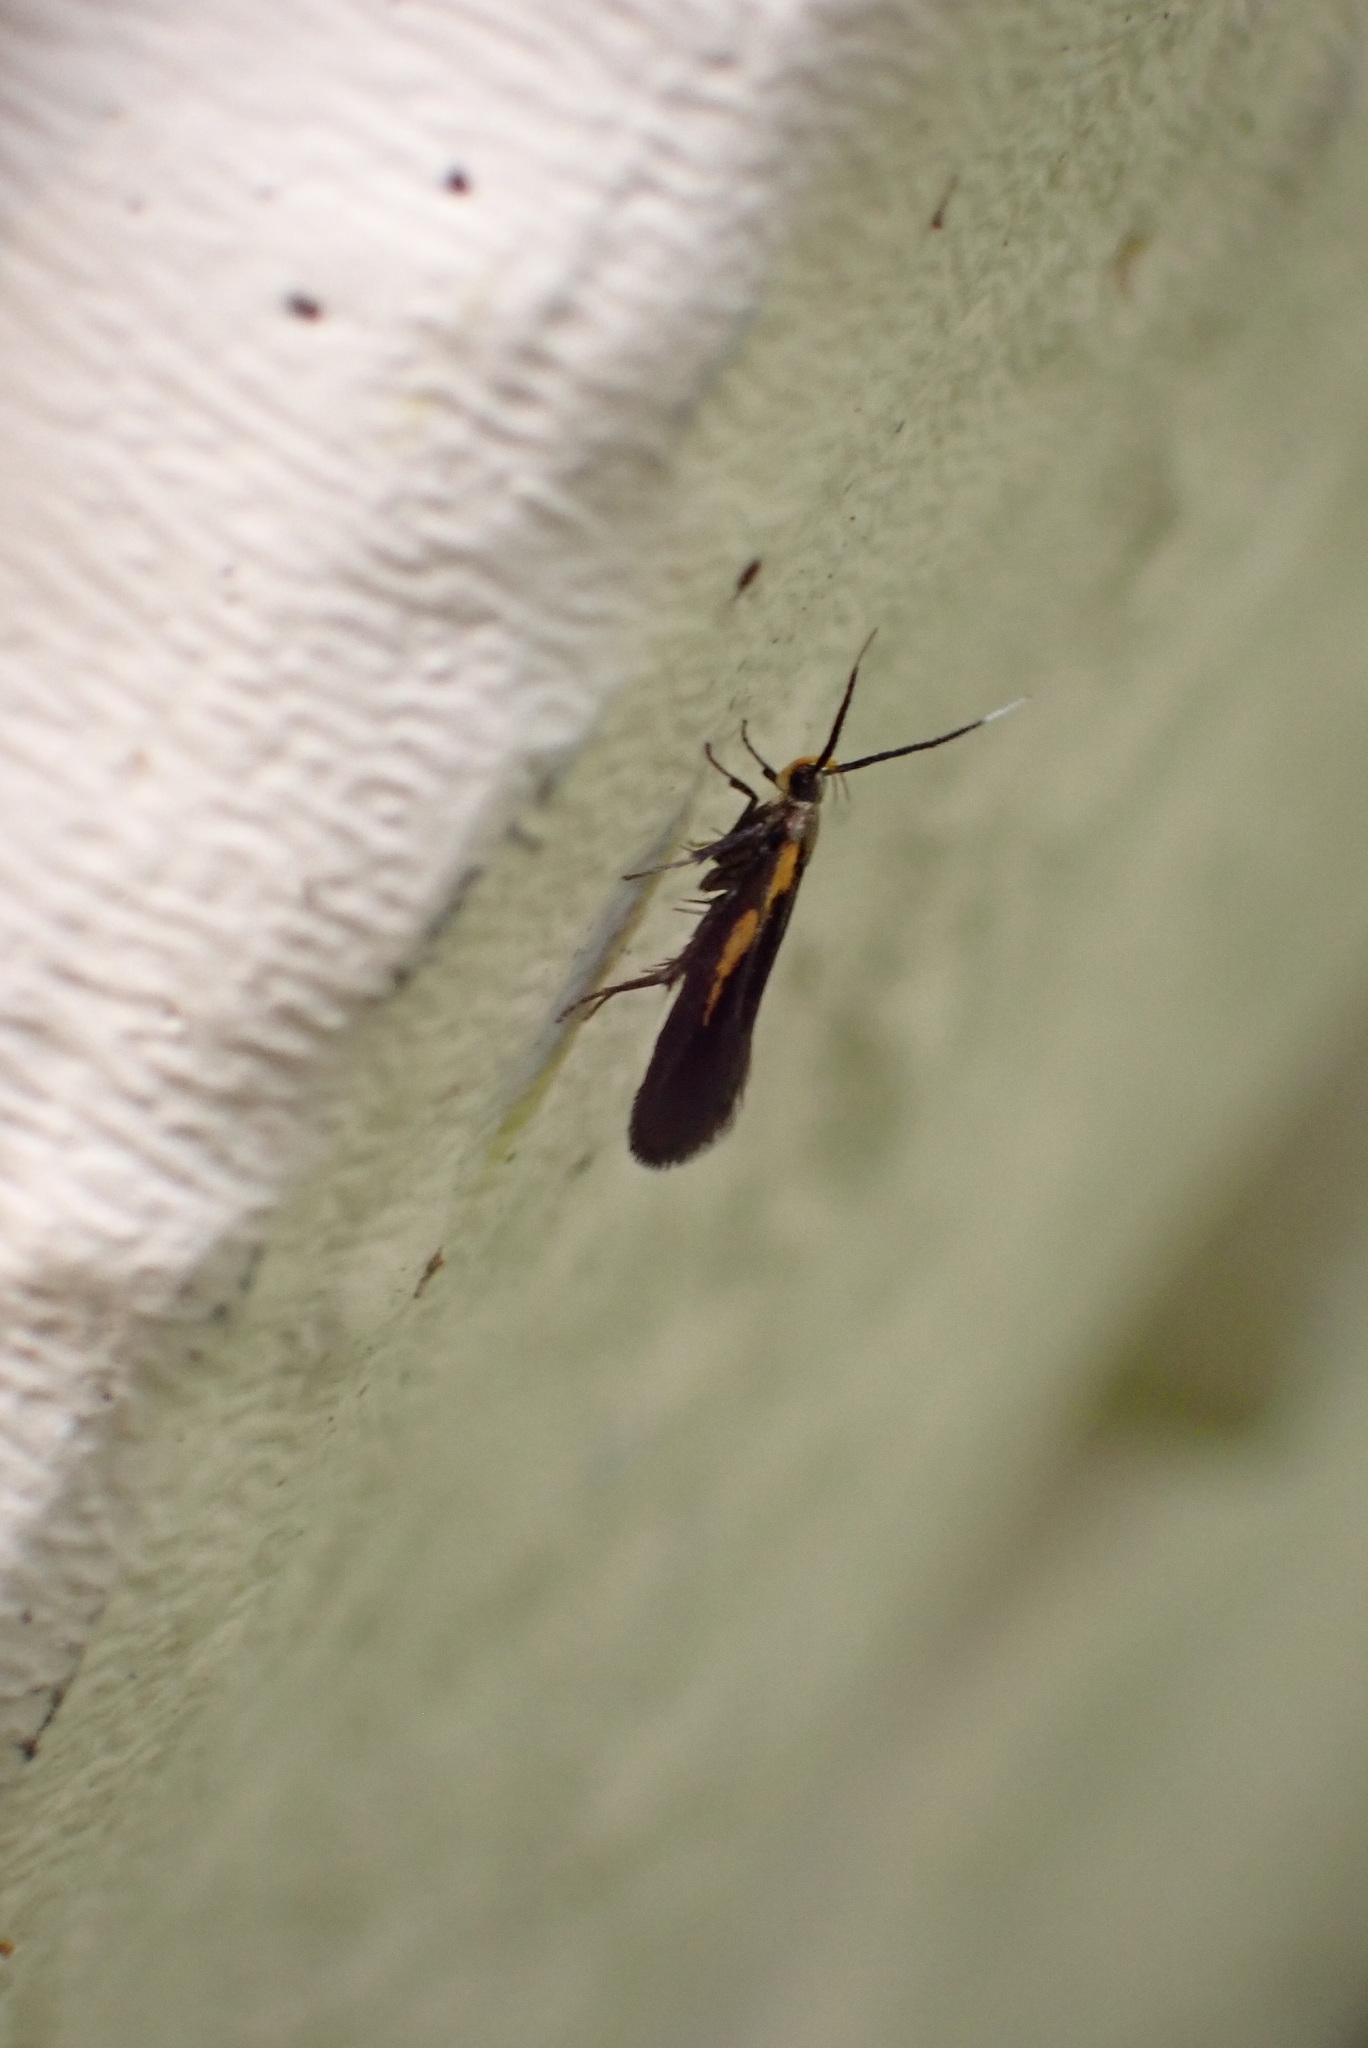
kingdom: Animalia
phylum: Arthropoda
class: Insecta
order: Lepidoptera
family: Oecophoridae
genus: Mathildana
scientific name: Mathildana newmanella
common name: Newman's mathildana moth
